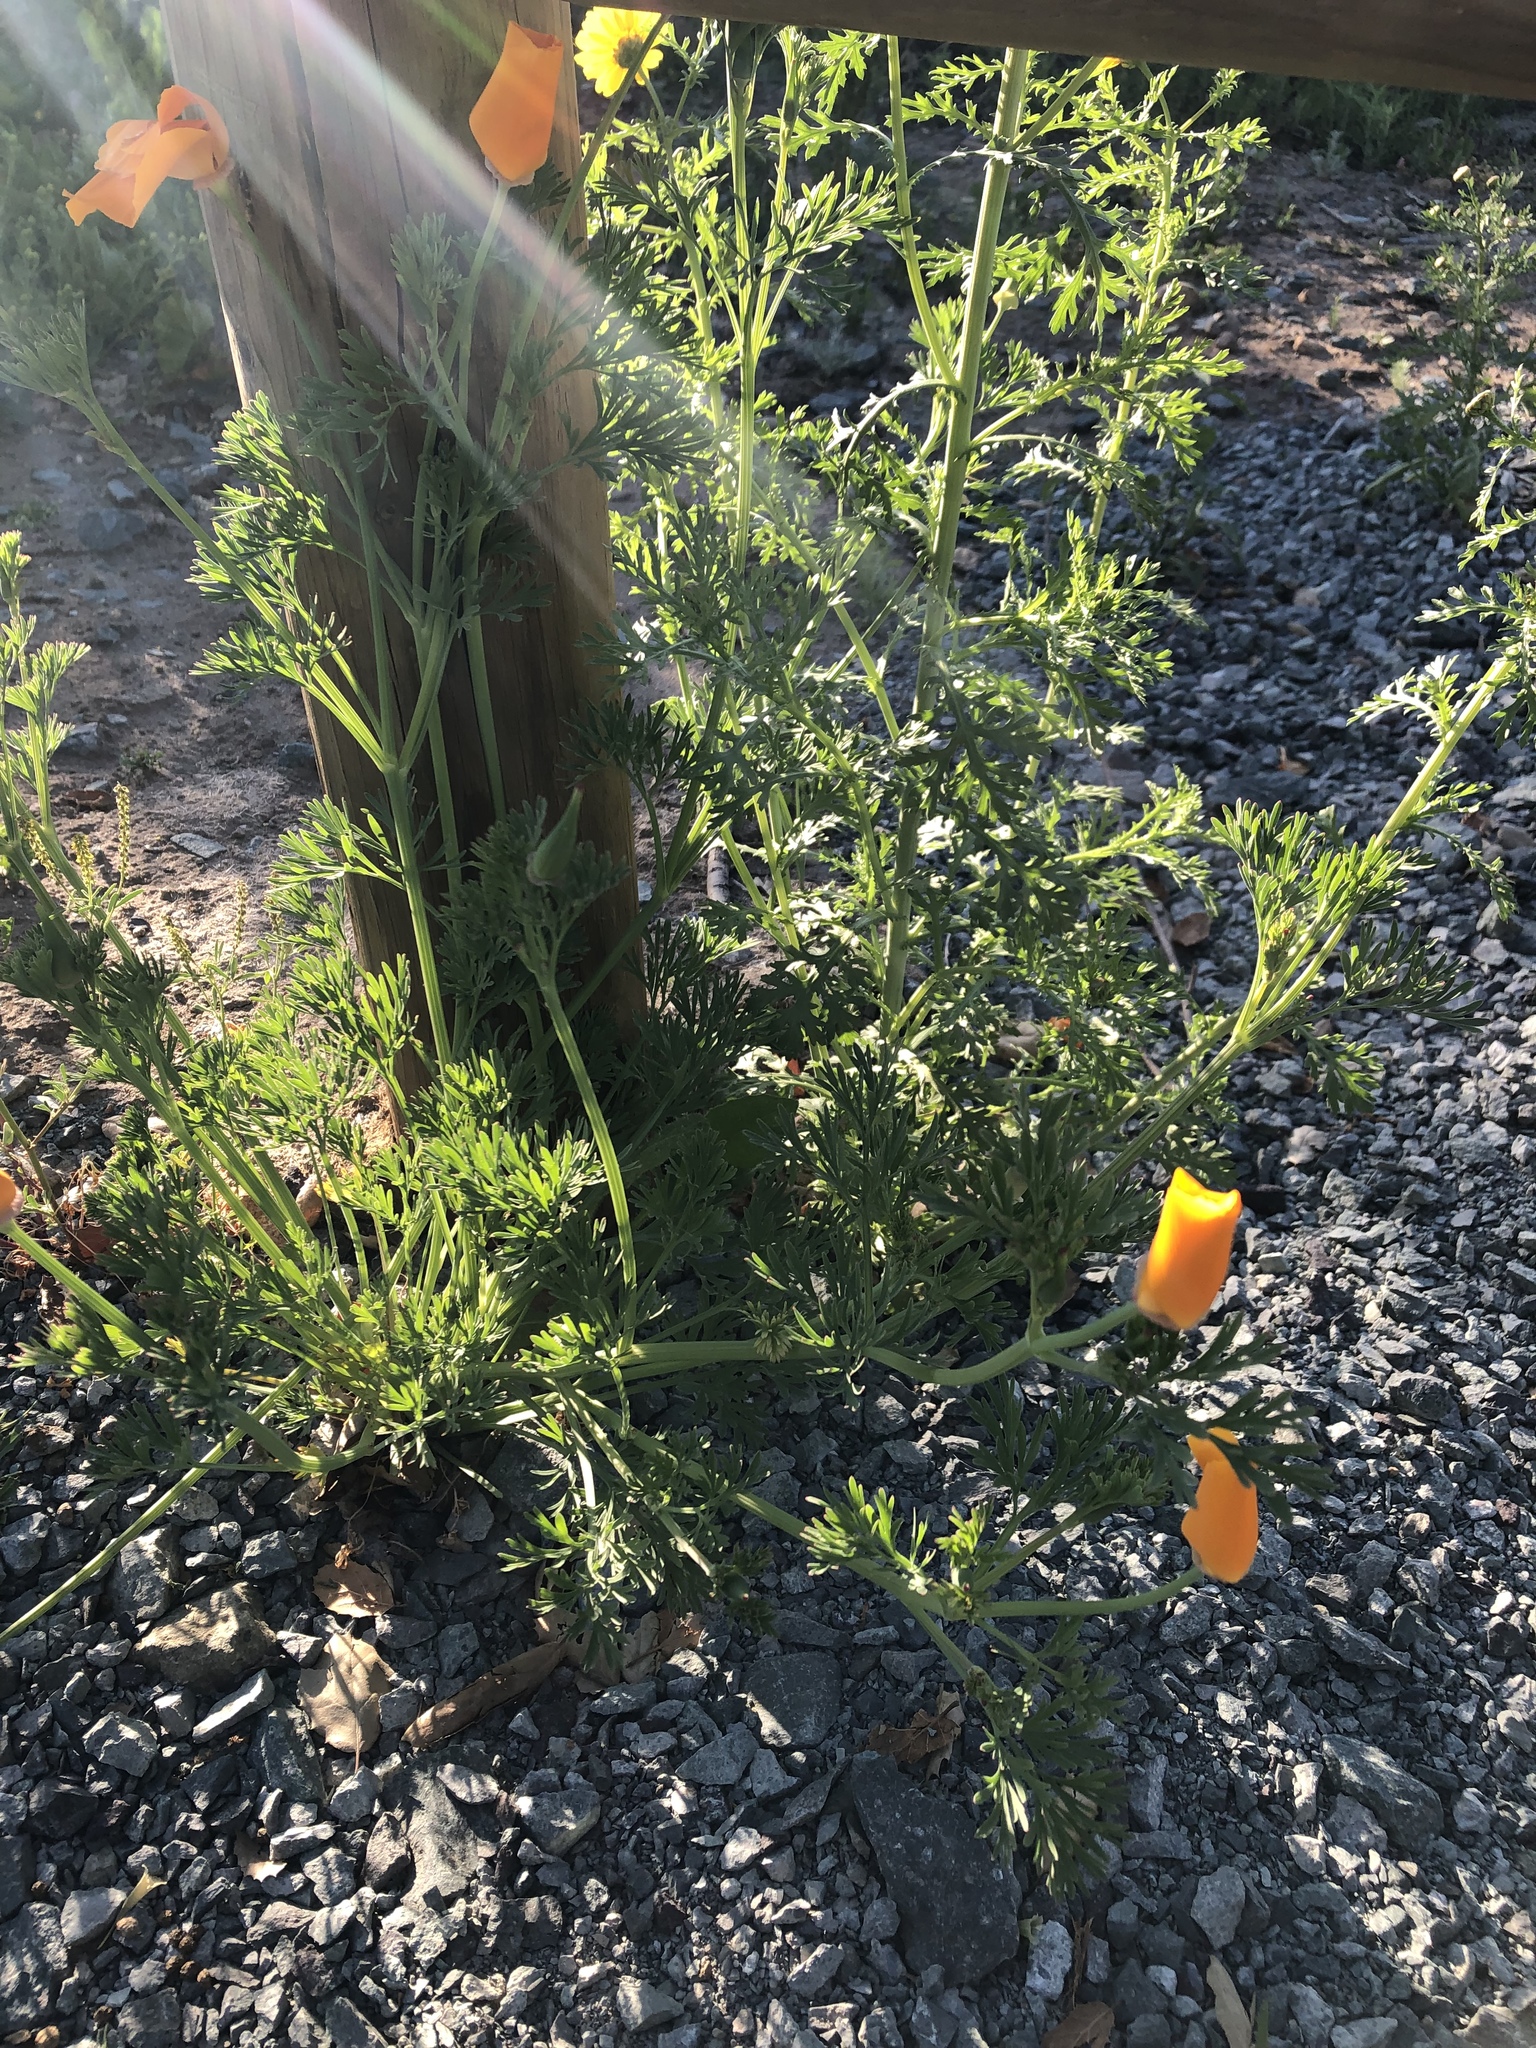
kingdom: Plantae
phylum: Tracheophyta
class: Magnoliopsida
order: Ranunculales
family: Papaveraceae
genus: Eschscholzia
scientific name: Eschscholzia californica
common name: California poppy
